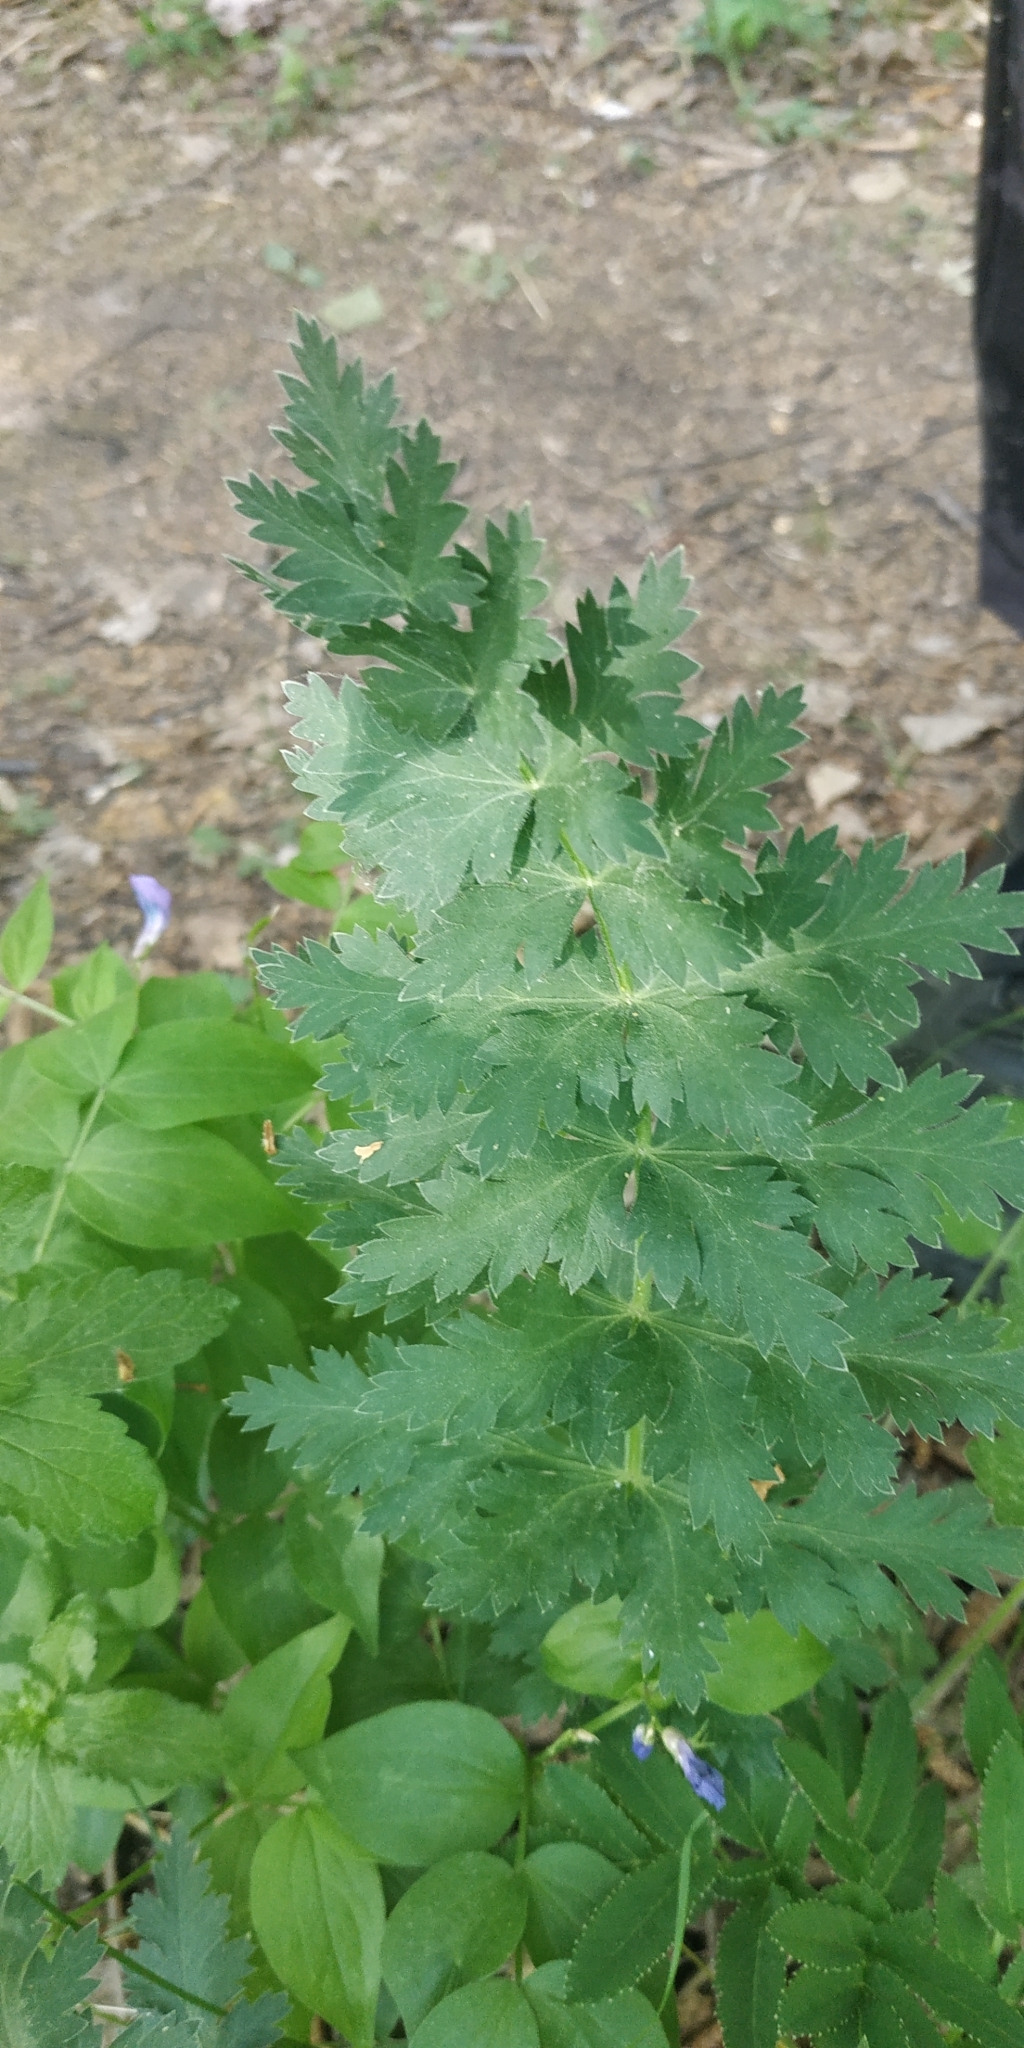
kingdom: Plantae
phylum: Tracheophyta
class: Magnoliopsida
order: Apiales
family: Apiaceae
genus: Seseli
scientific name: Seseli libanotis
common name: Mooncarrot
